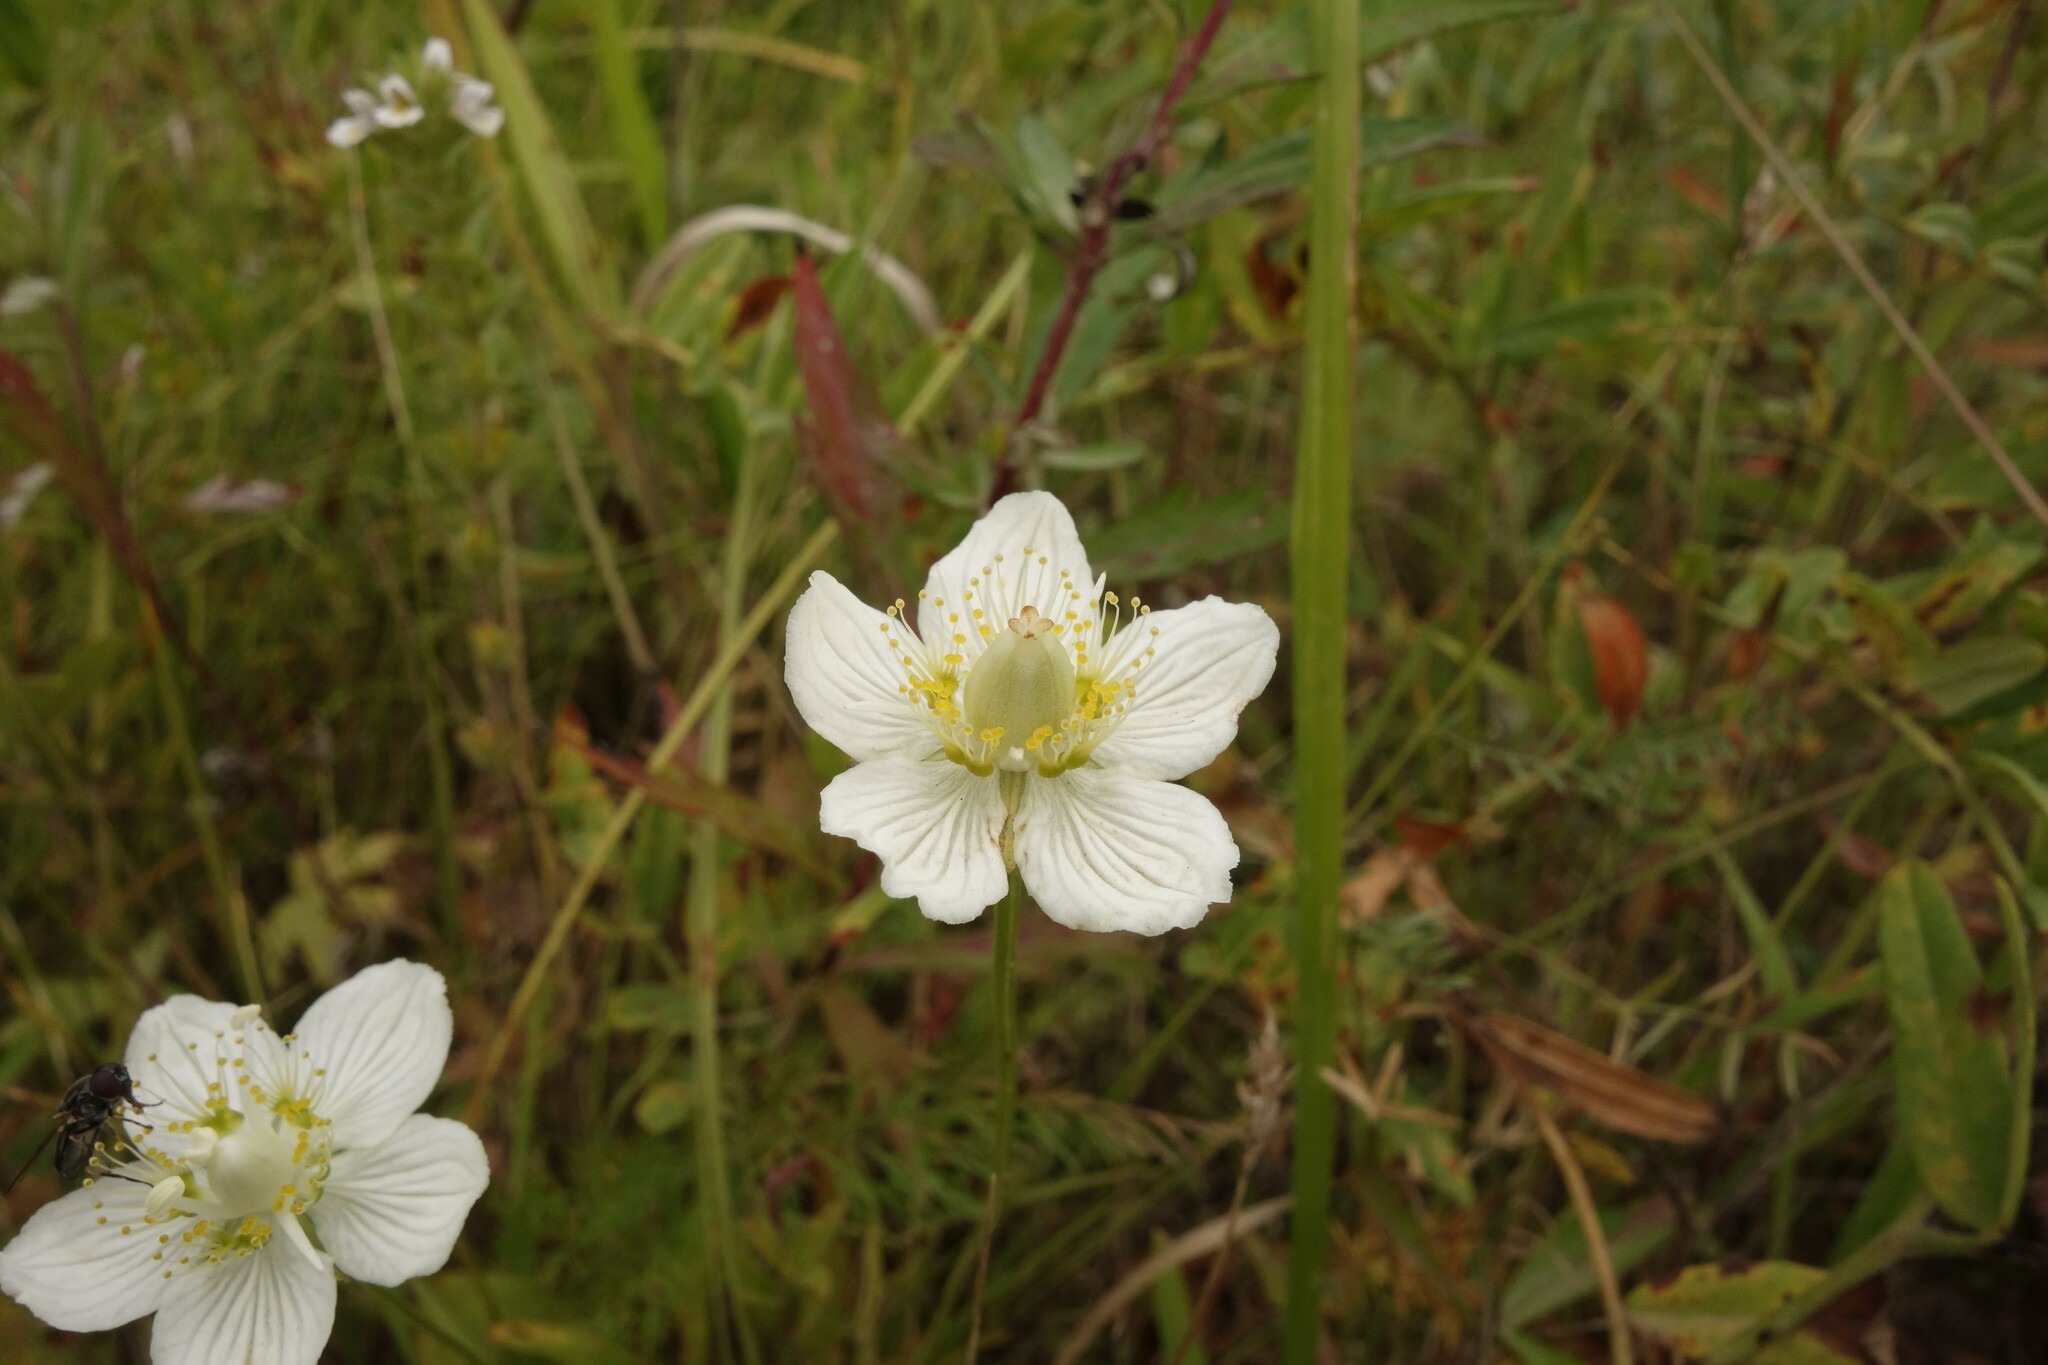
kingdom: Plantae
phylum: Tracheophyta
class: Magnoliopsida
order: Celastrales
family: Parnassiaceae
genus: Parnassia
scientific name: Parnassia palustris
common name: Grass-of-parnassus
